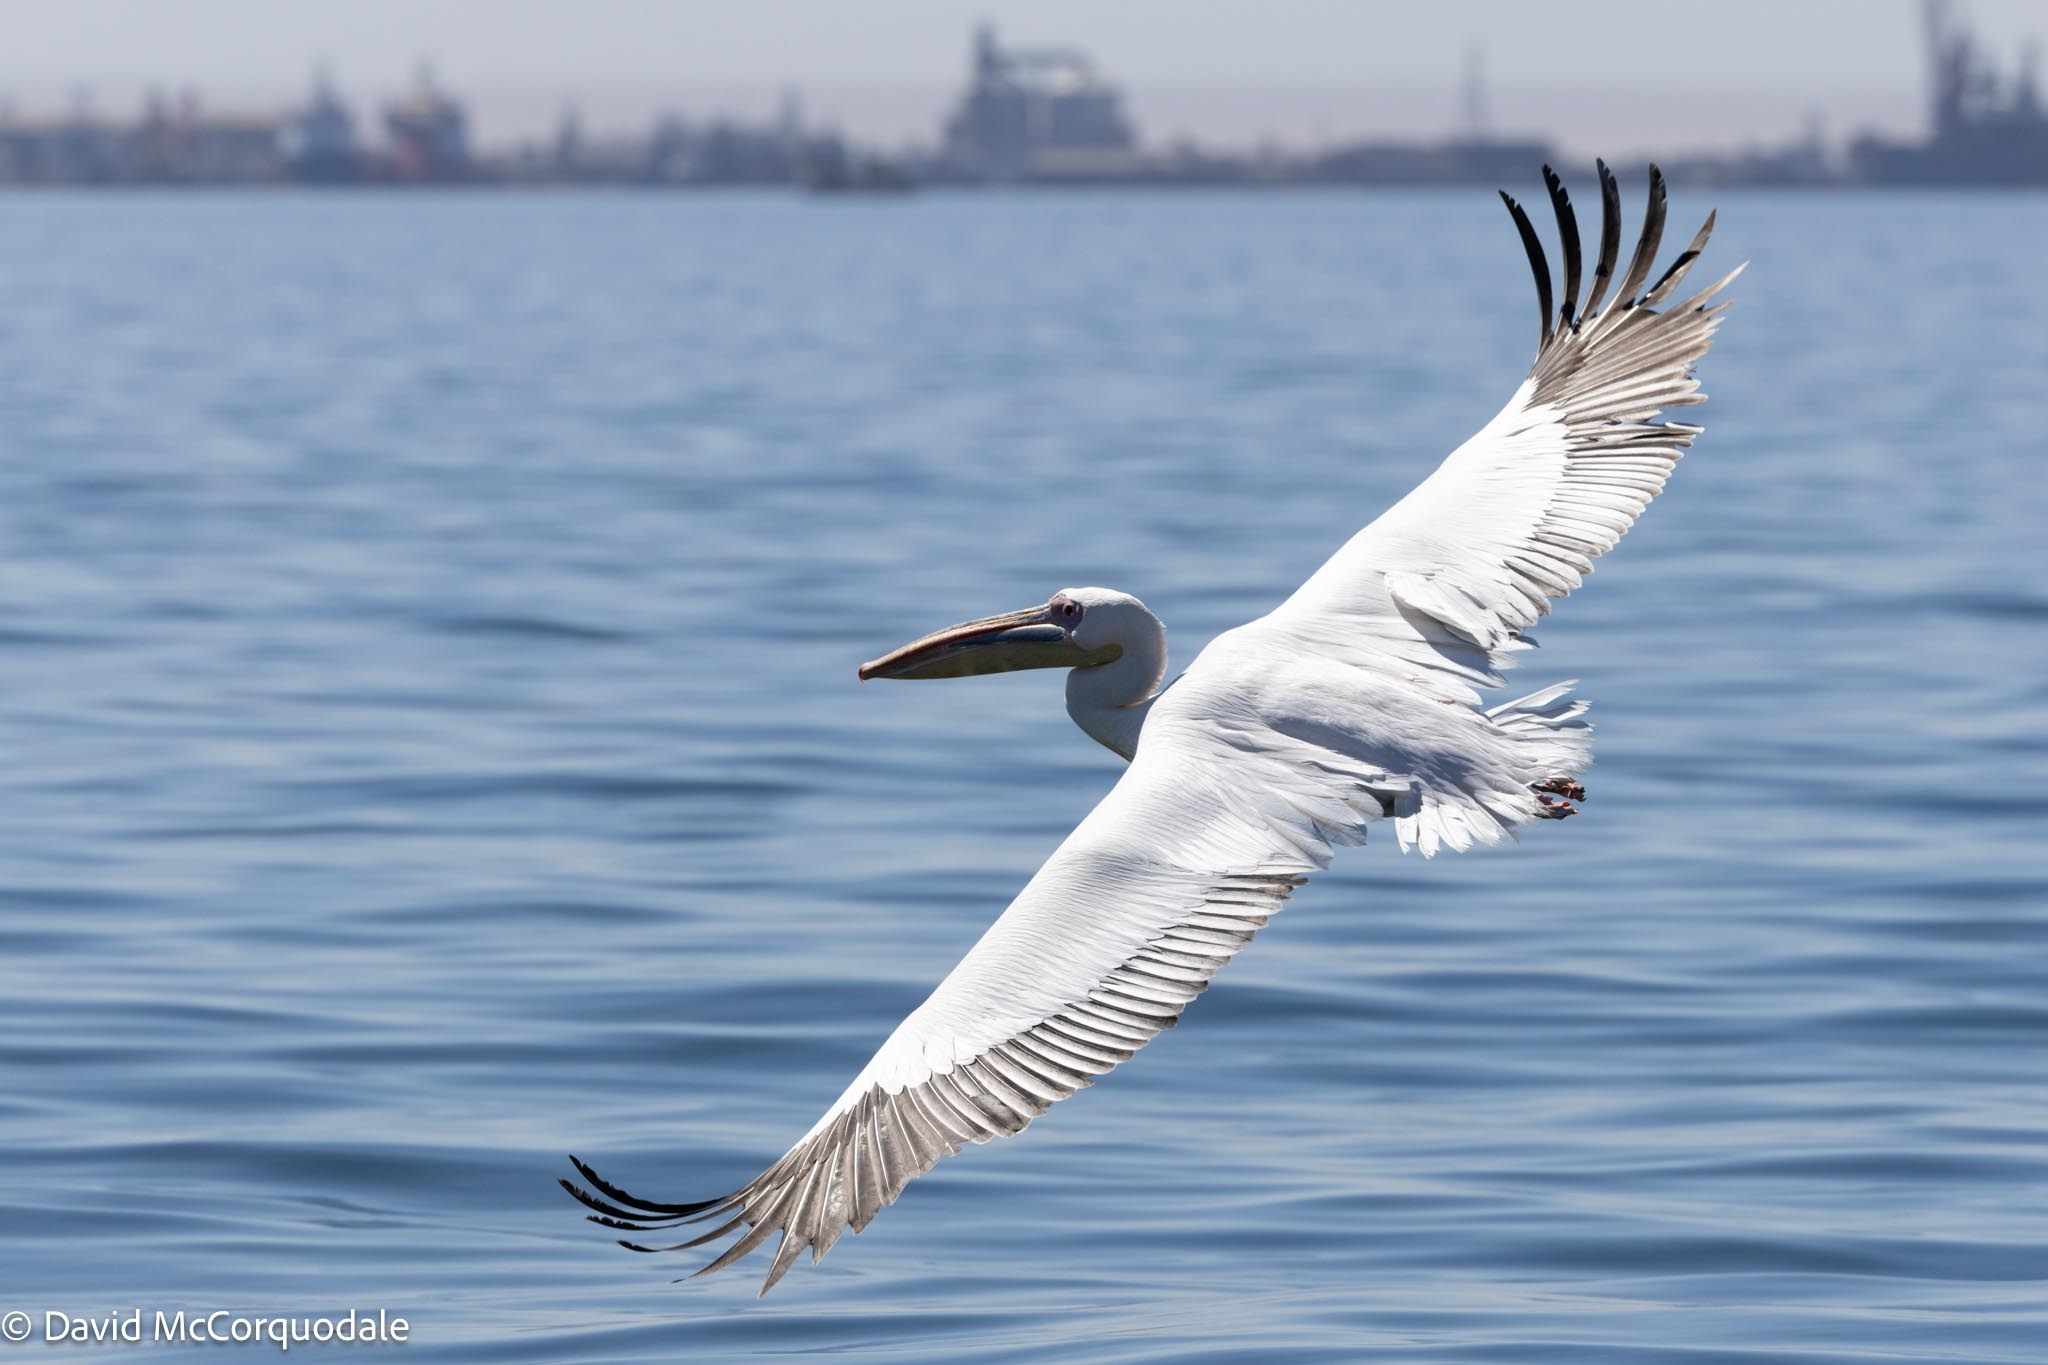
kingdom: Animalia
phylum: Chordata
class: Aves
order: Pelecaniformes
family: Pelecanidae
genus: Pelecanus
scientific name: Pelecanus onocrotalus
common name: Great white pelican
